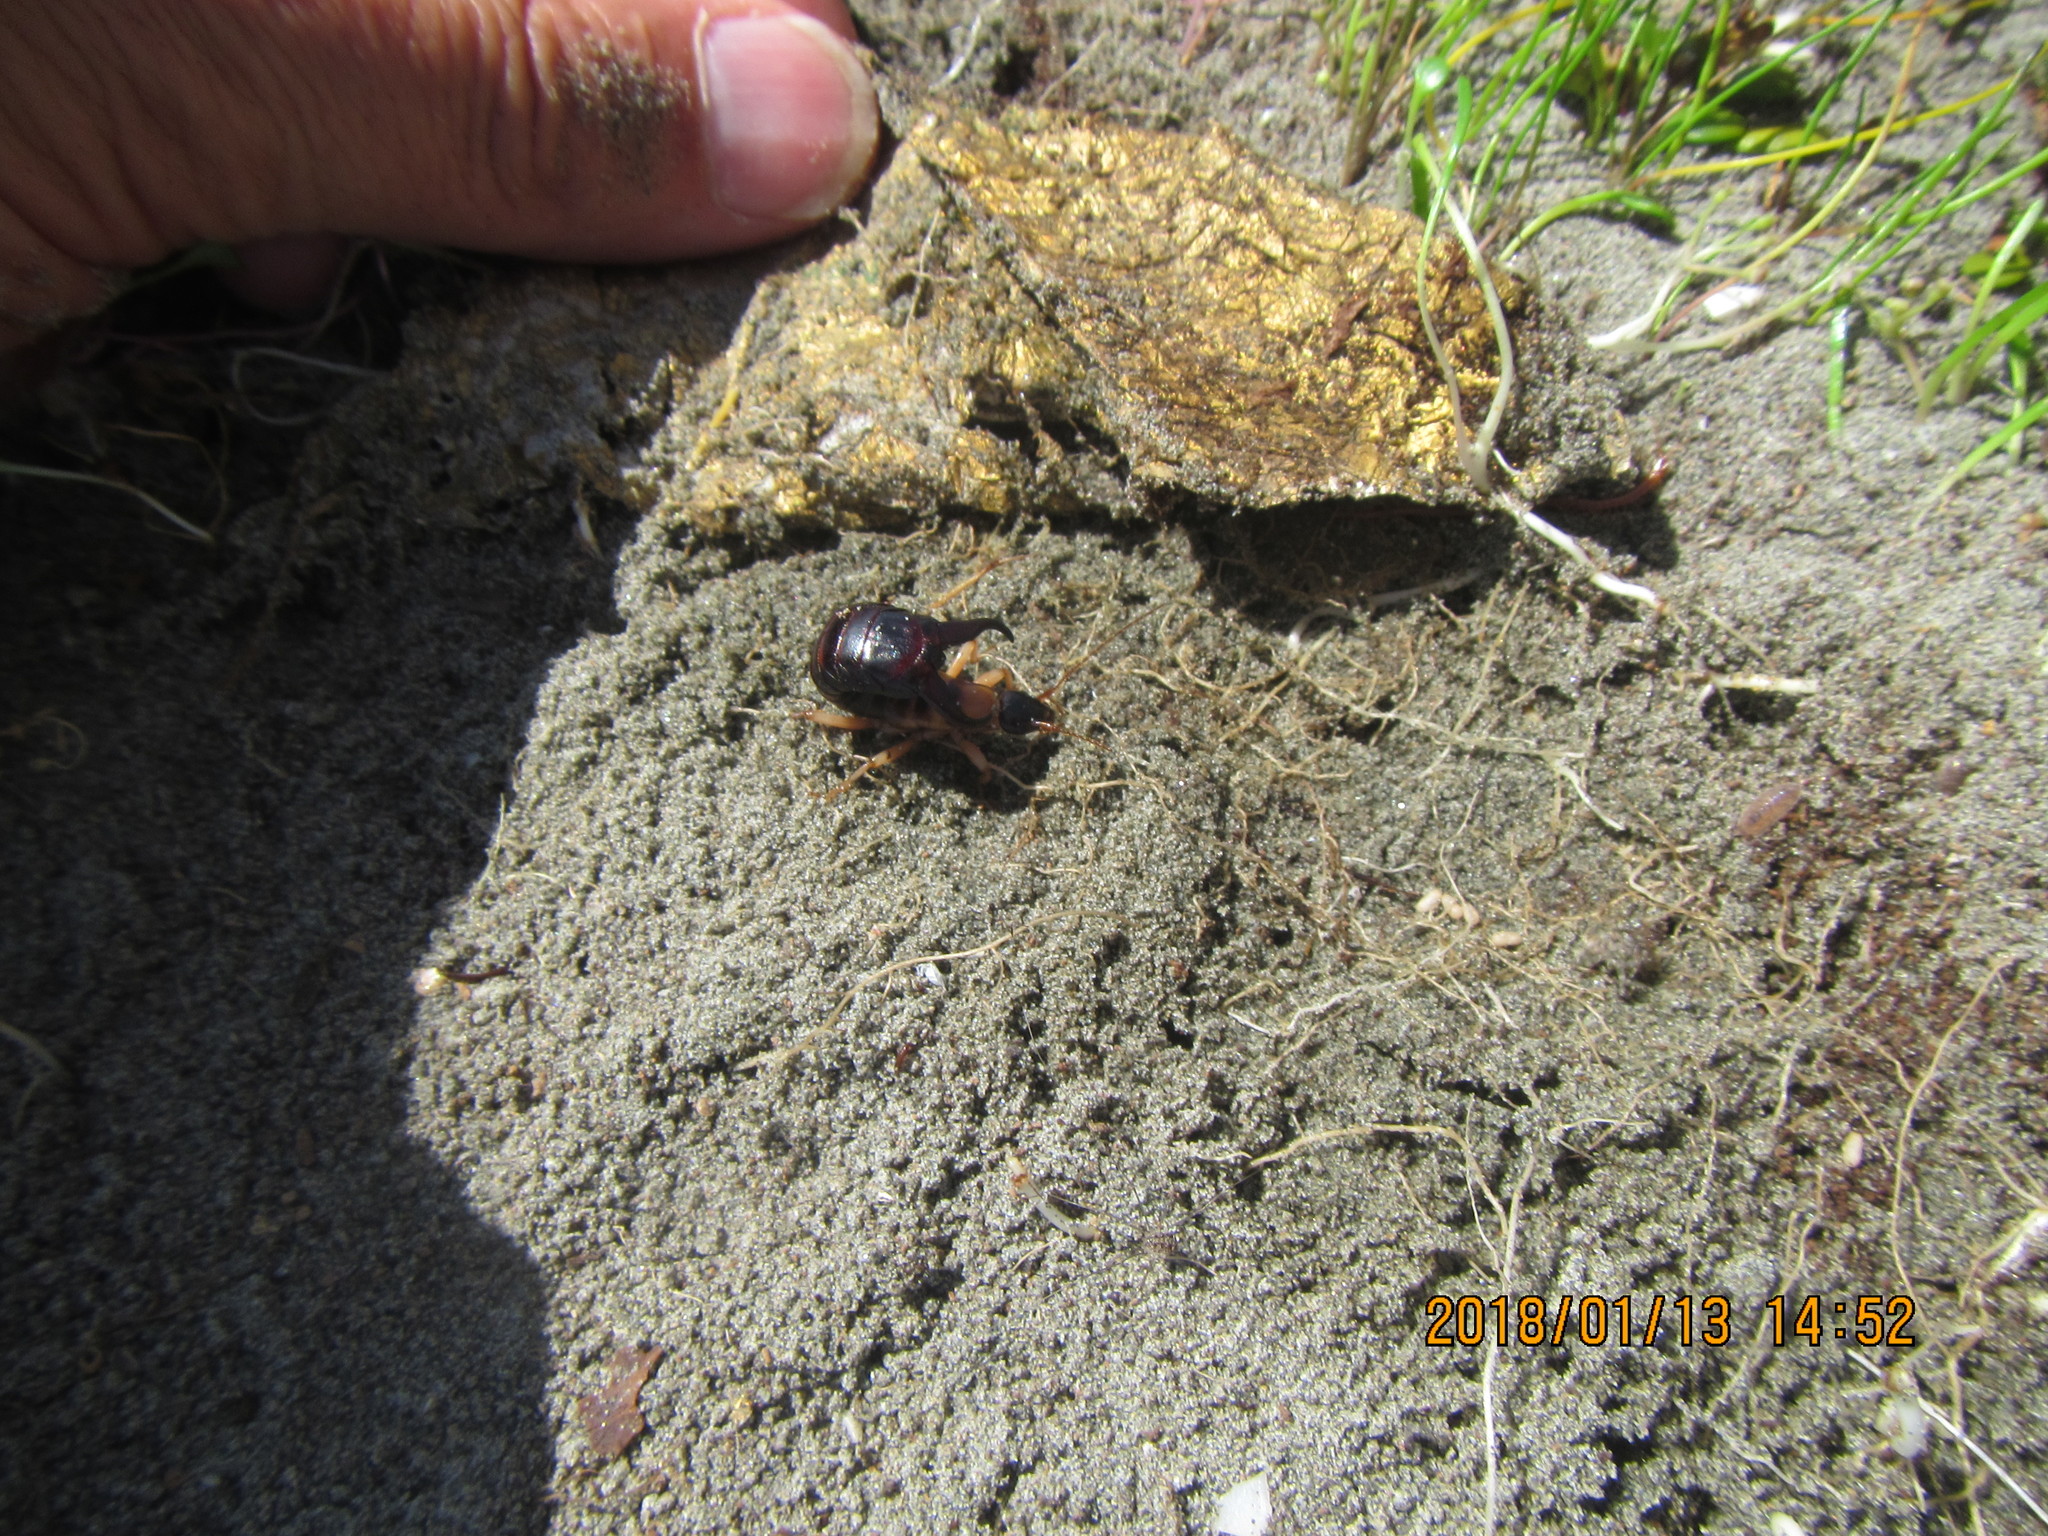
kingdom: Animalia
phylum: Arthropoda
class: Insecta
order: Dermaptera
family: Anisolabididae
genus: Anisolabis
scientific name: Anisolabis littorea
